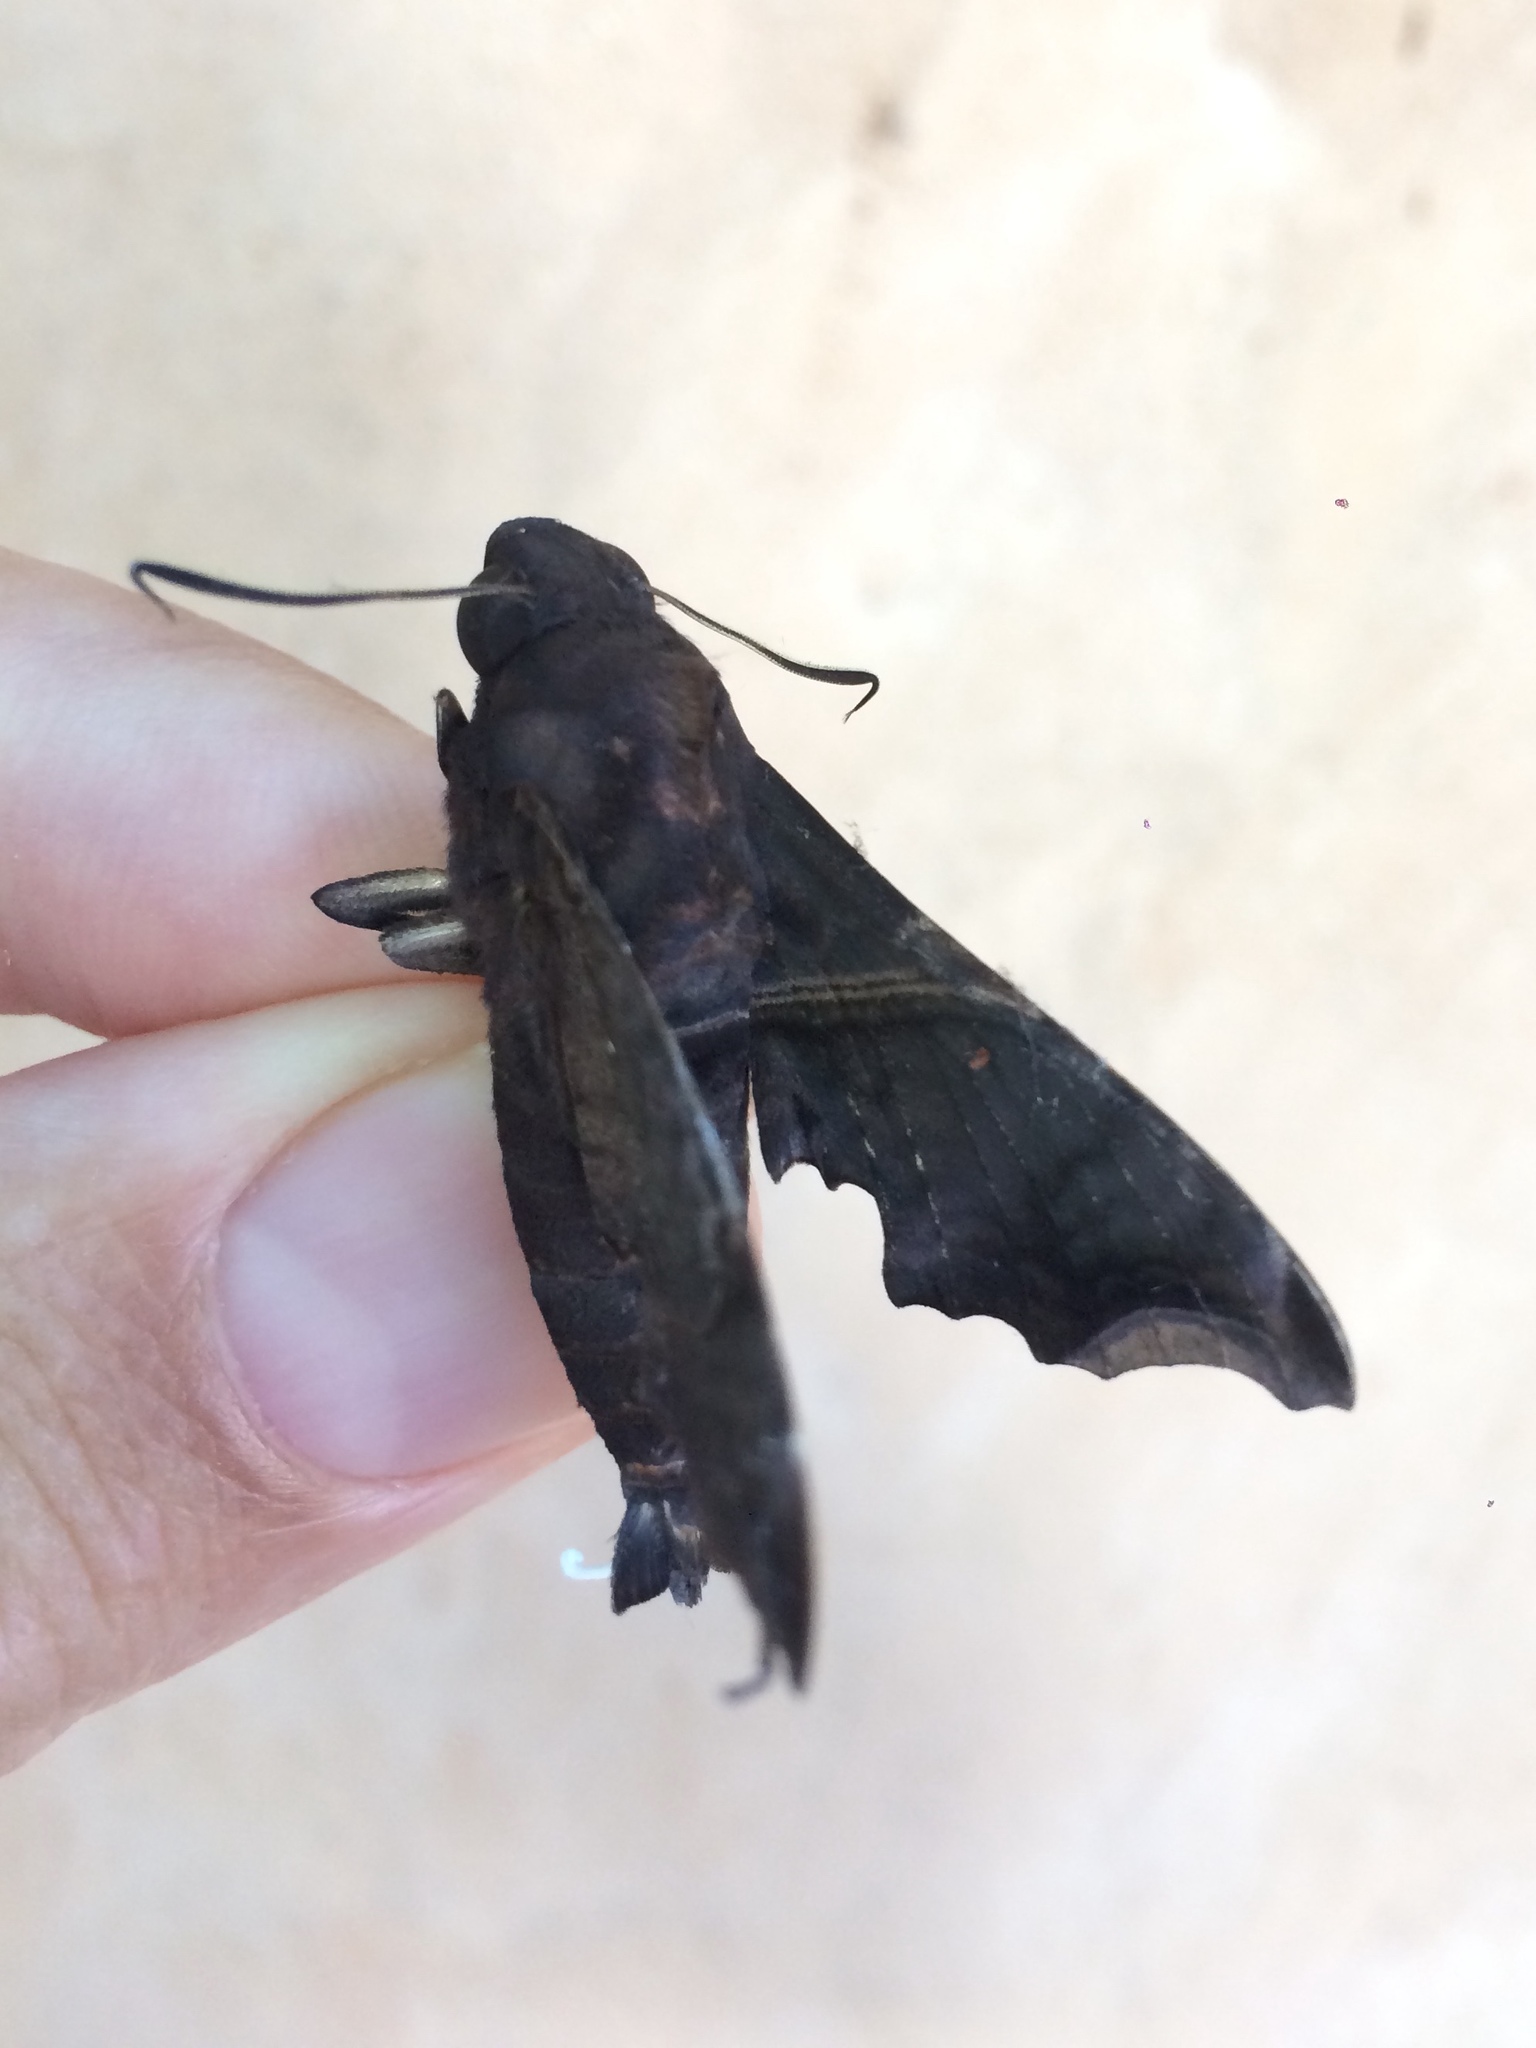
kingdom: Animalia
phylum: Arthropoda
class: Insecta
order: Lepidoptera
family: Sphingidae
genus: Enyo
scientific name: Enyo ocypete
